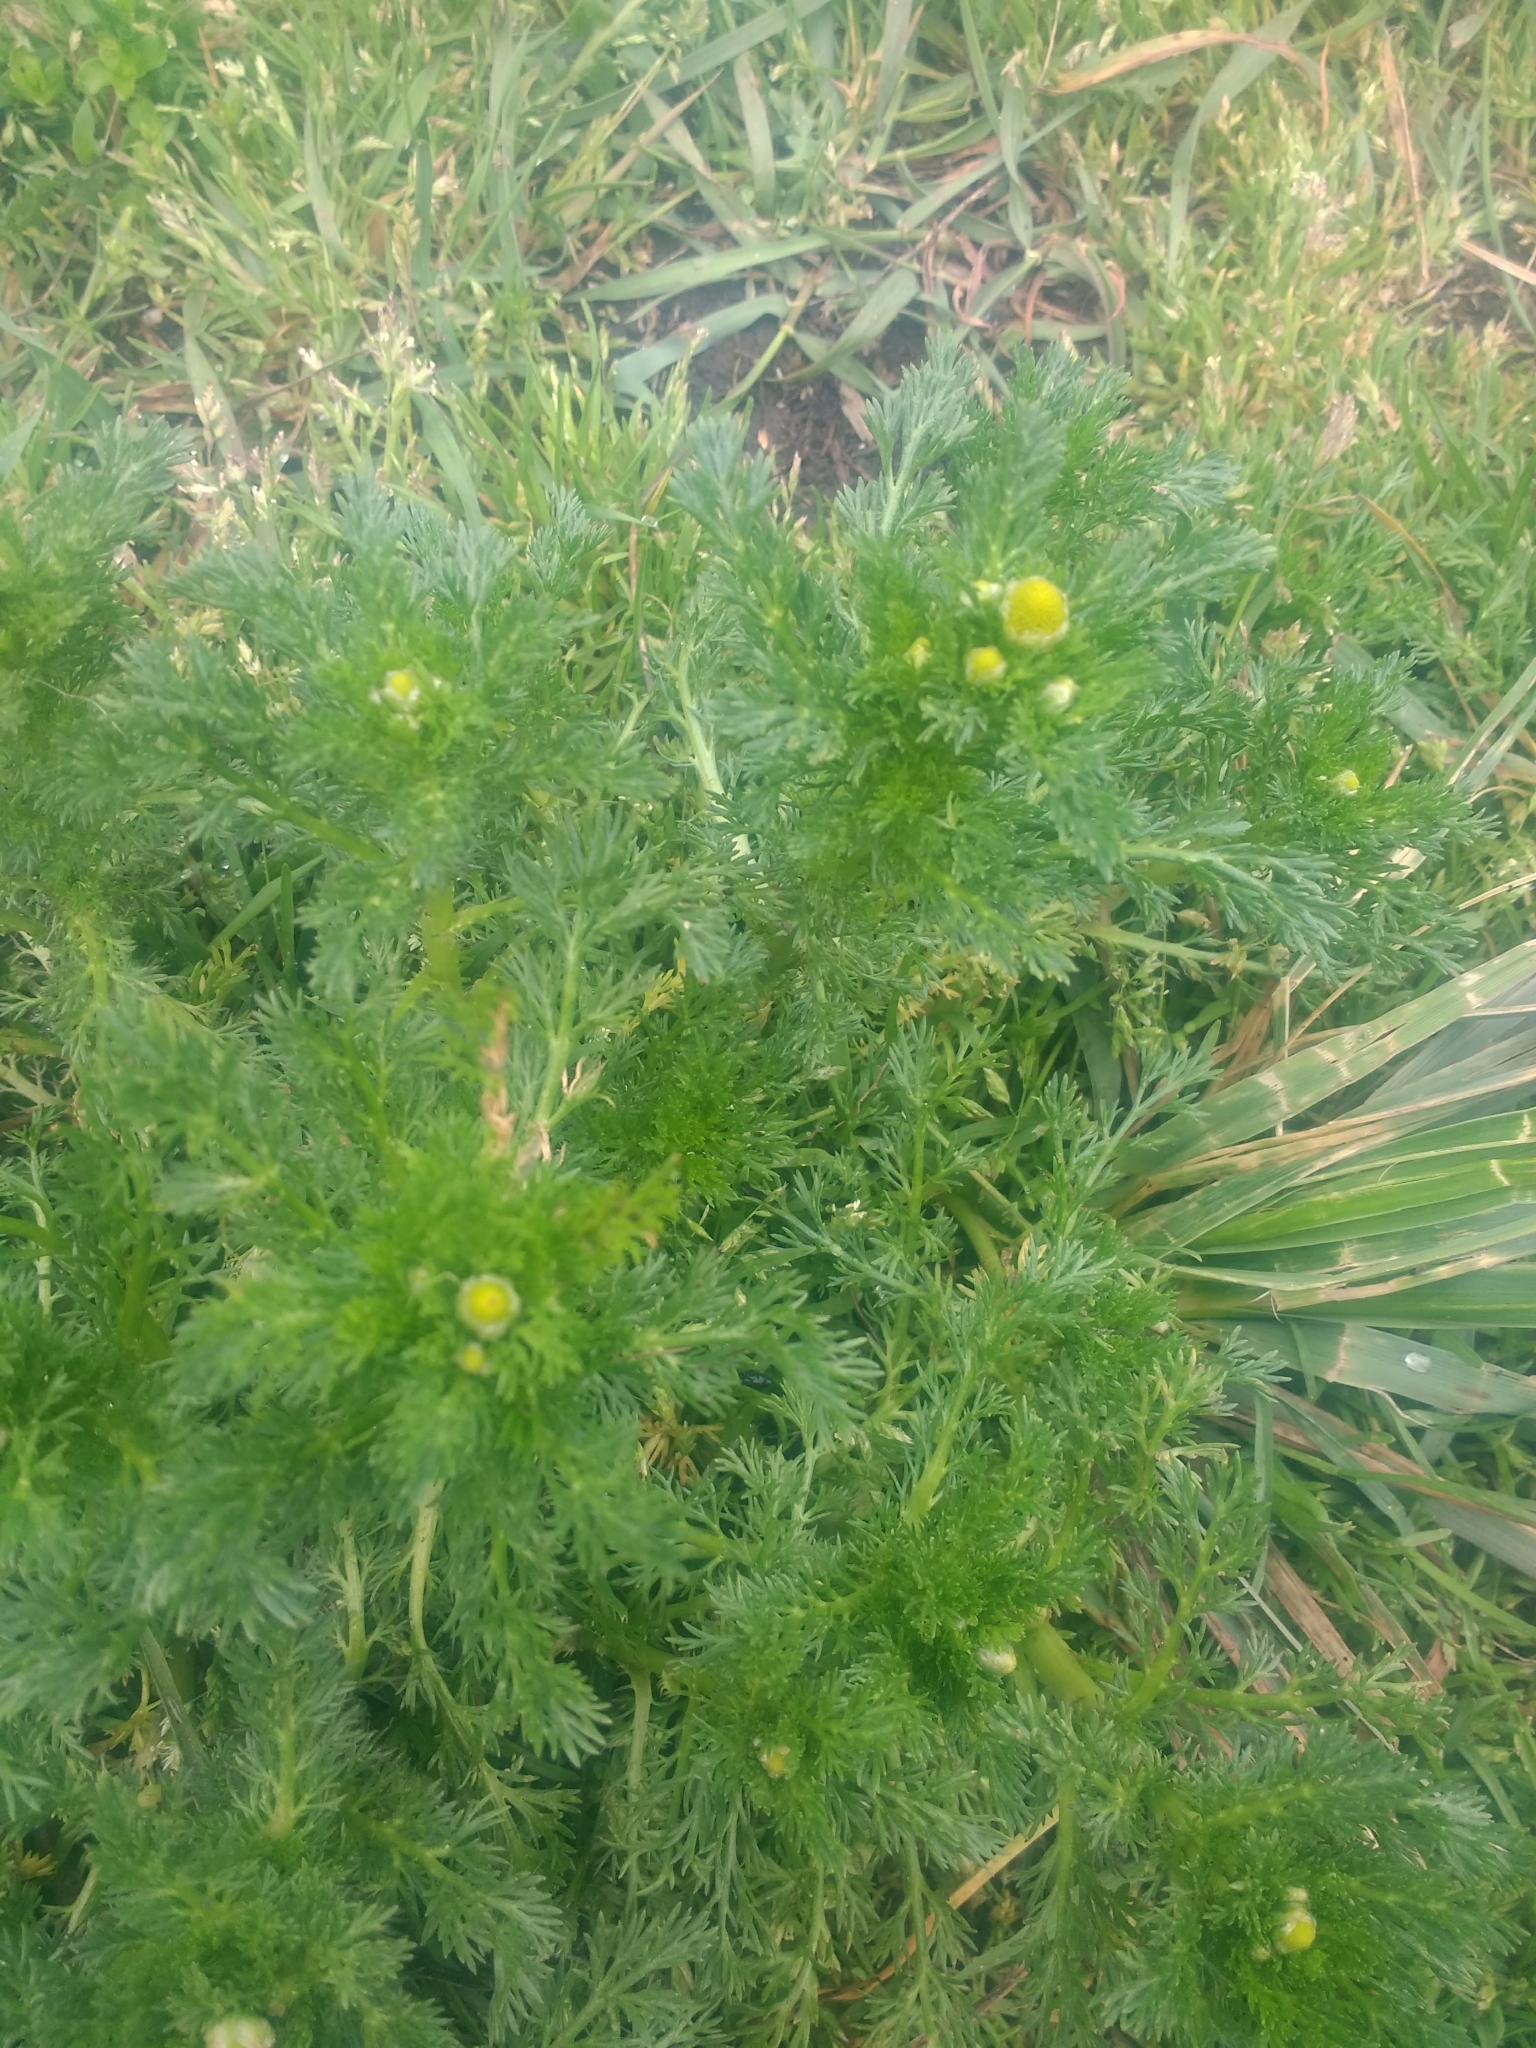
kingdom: Plantae
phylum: Tracheophyta
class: Magnoliopsida
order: Asterales
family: Asteraceae
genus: Matricaria
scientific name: Matricaria discoidea
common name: Disc mayweed
